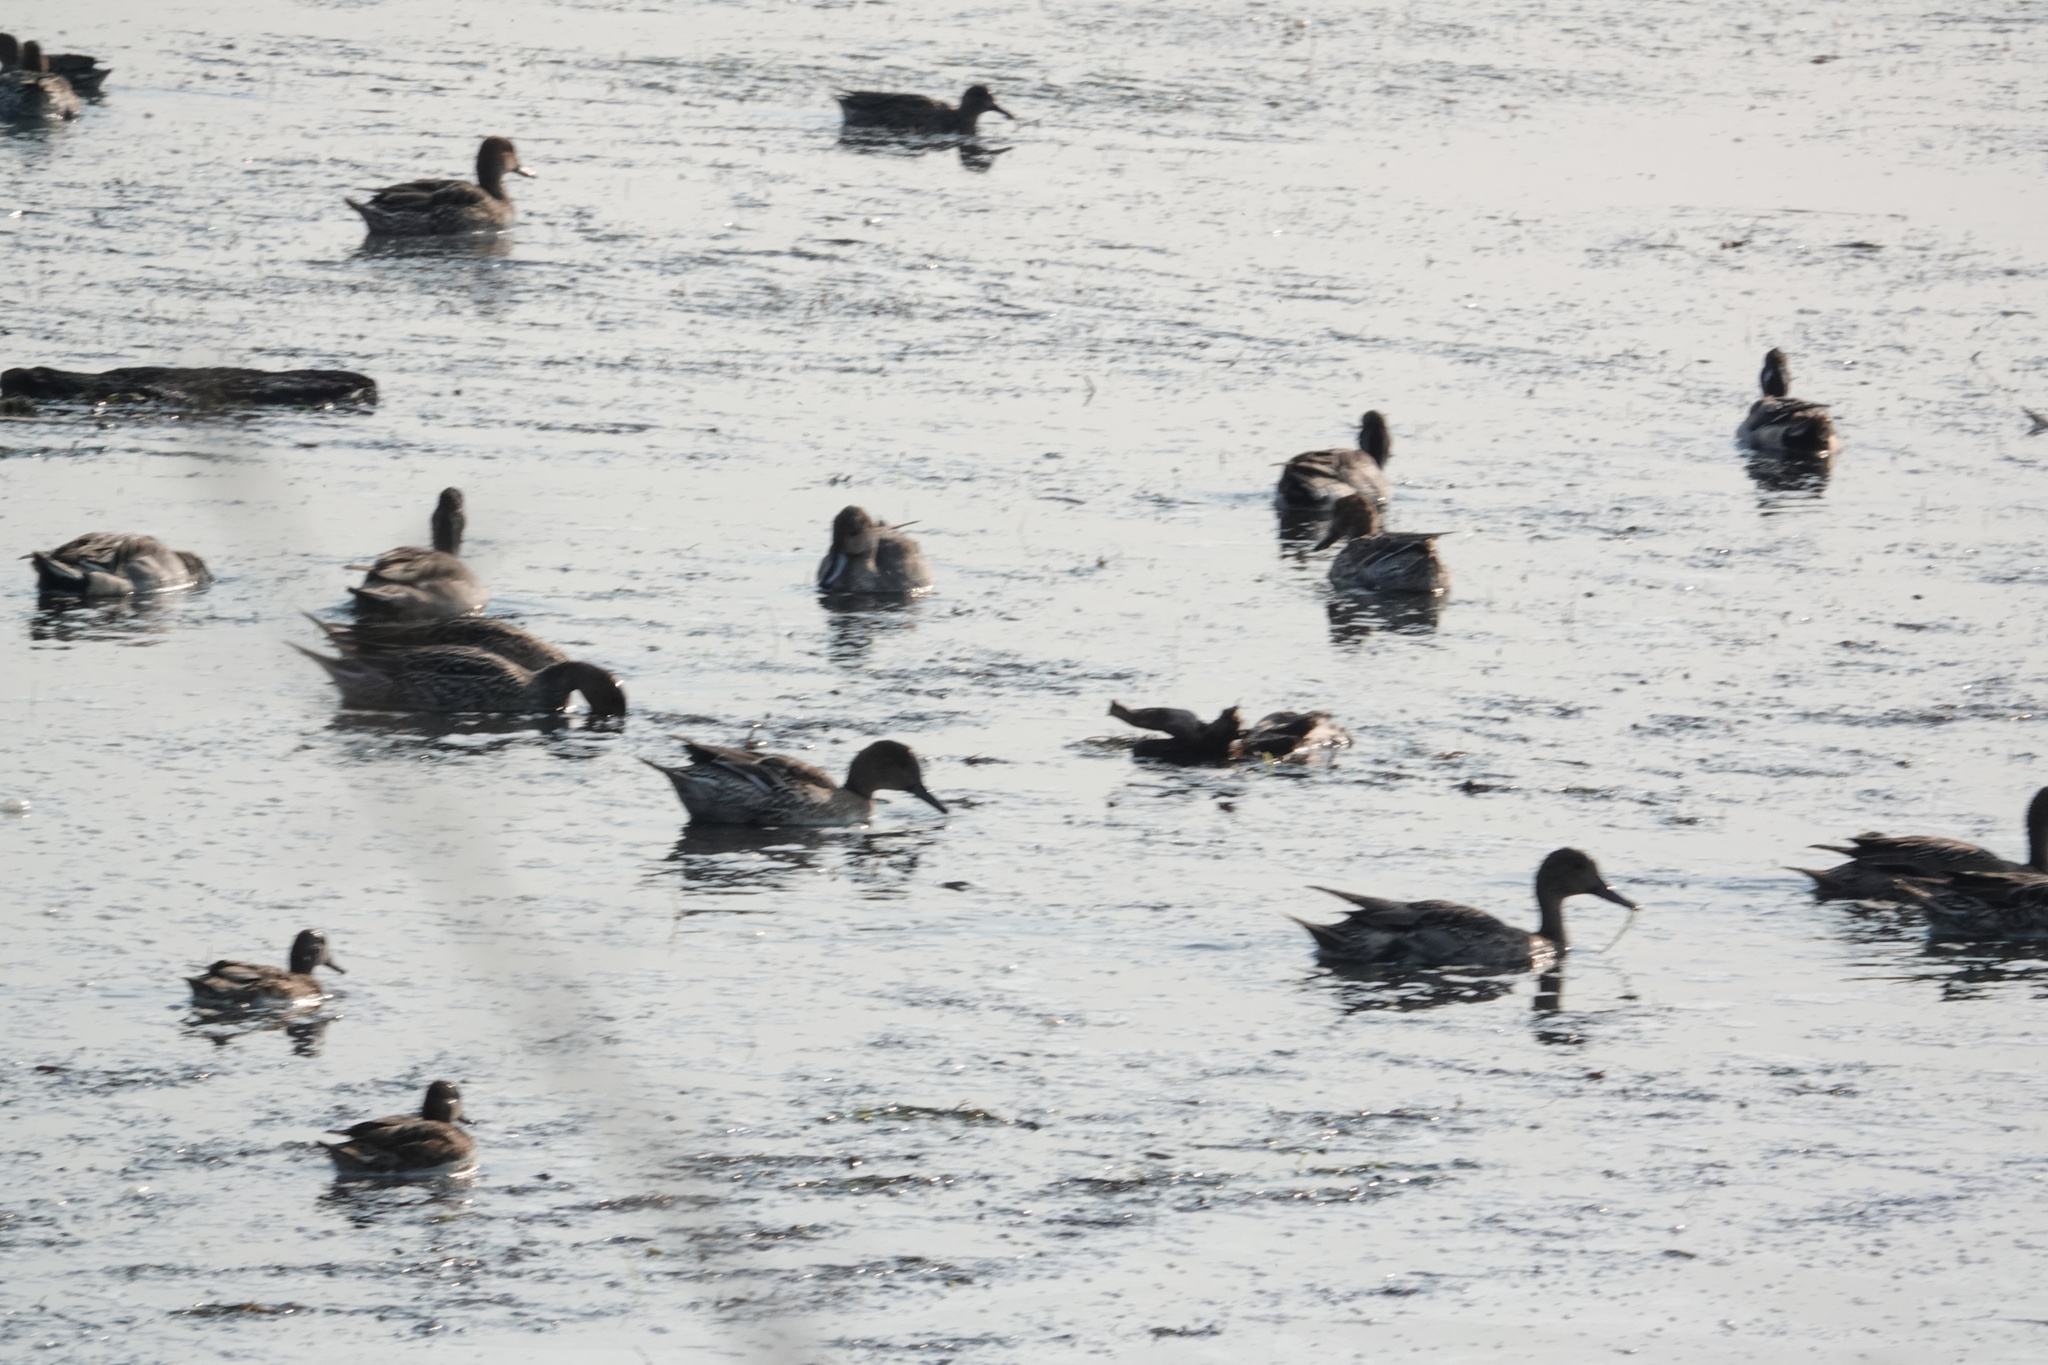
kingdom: Animalia
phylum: Chordata
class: Aves
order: Anseriformes
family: Anatidae
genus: Anas
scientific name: Anas acuta
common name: Northern pintail
